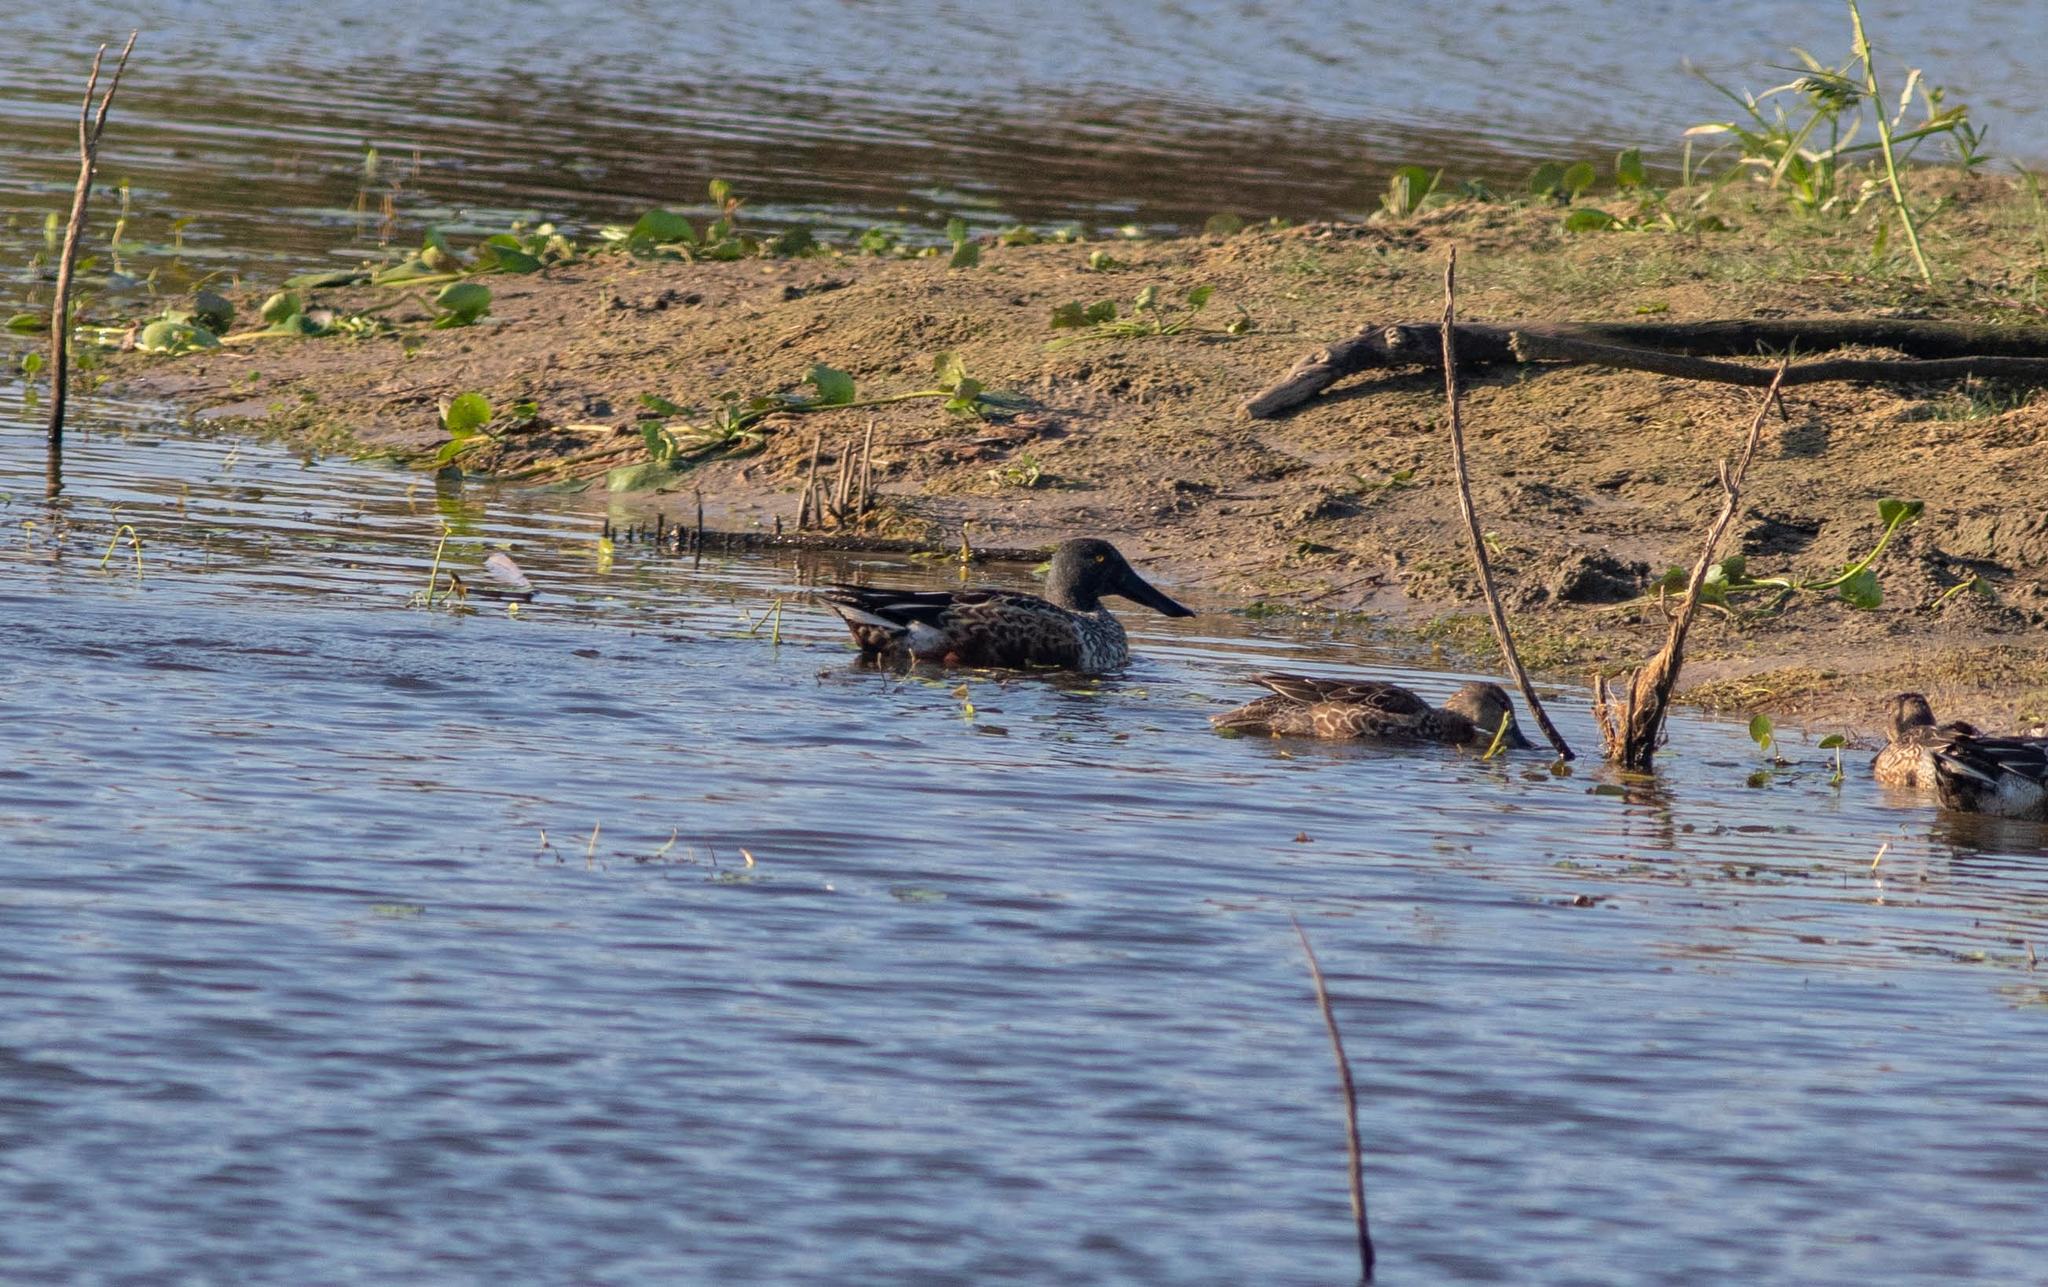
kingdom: Animalia
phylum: Chordata
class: Aves
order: Anseriformes
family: Anatidae
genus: Spatula
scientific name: Spatula clypeata
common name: Northern shoveler
